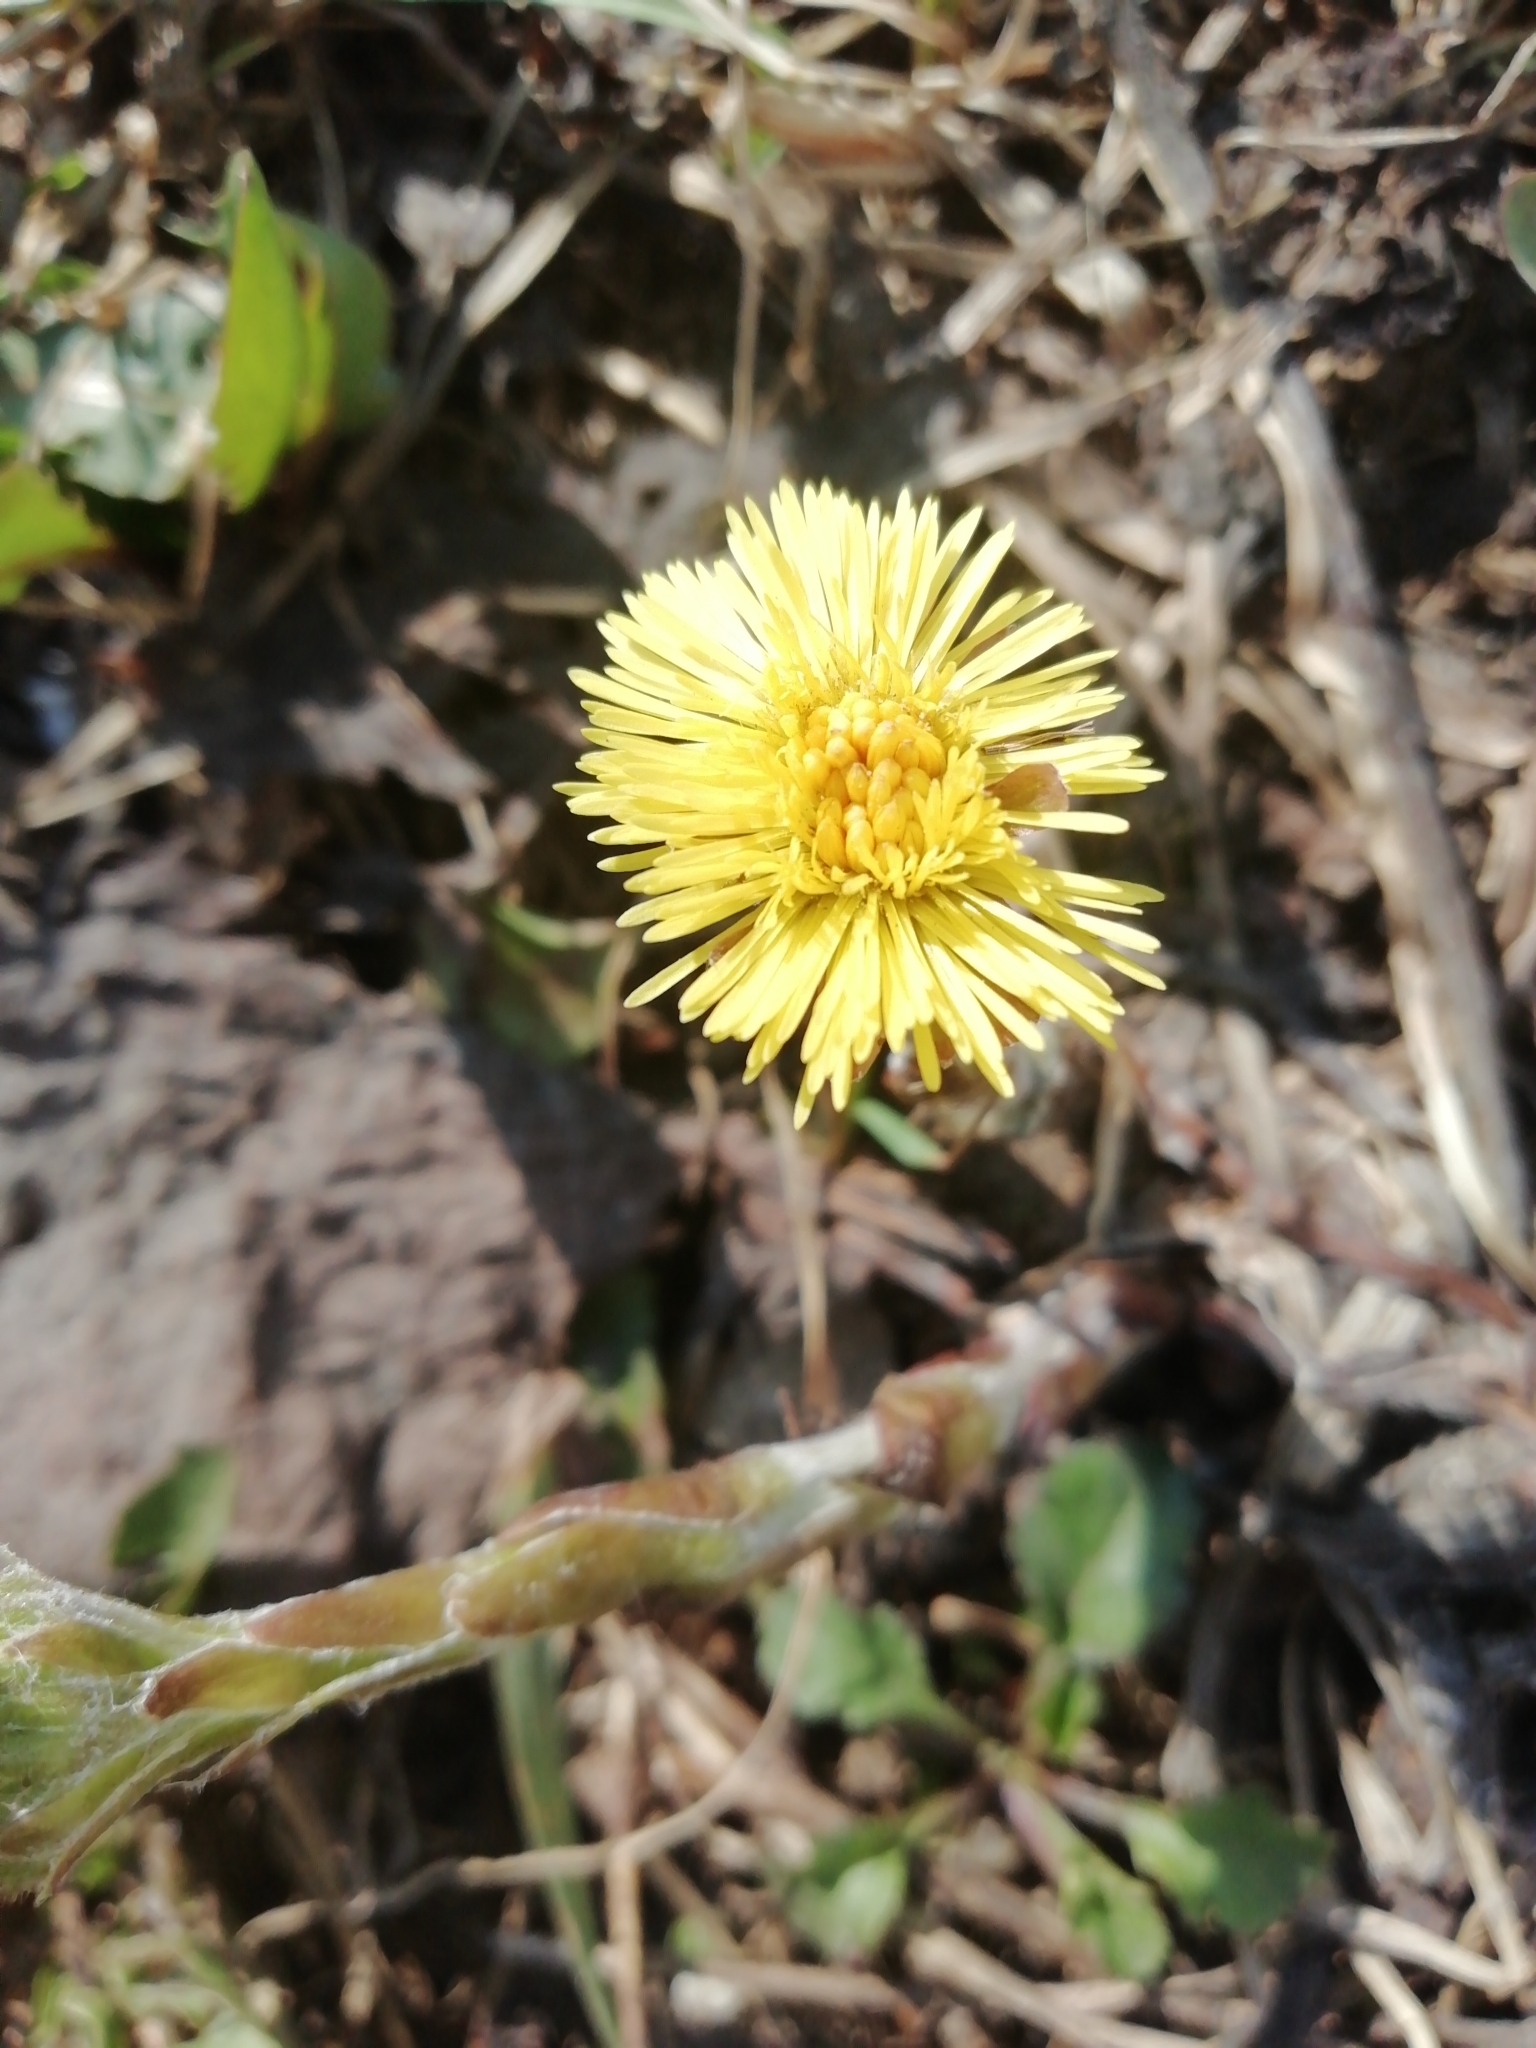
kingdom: Plantae
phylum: Tracheophyta
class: Magnoliopsida
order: Asterales
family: Asteraceae
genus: Tussilago
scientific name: Tussilago farfara
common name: Coltsfoot
